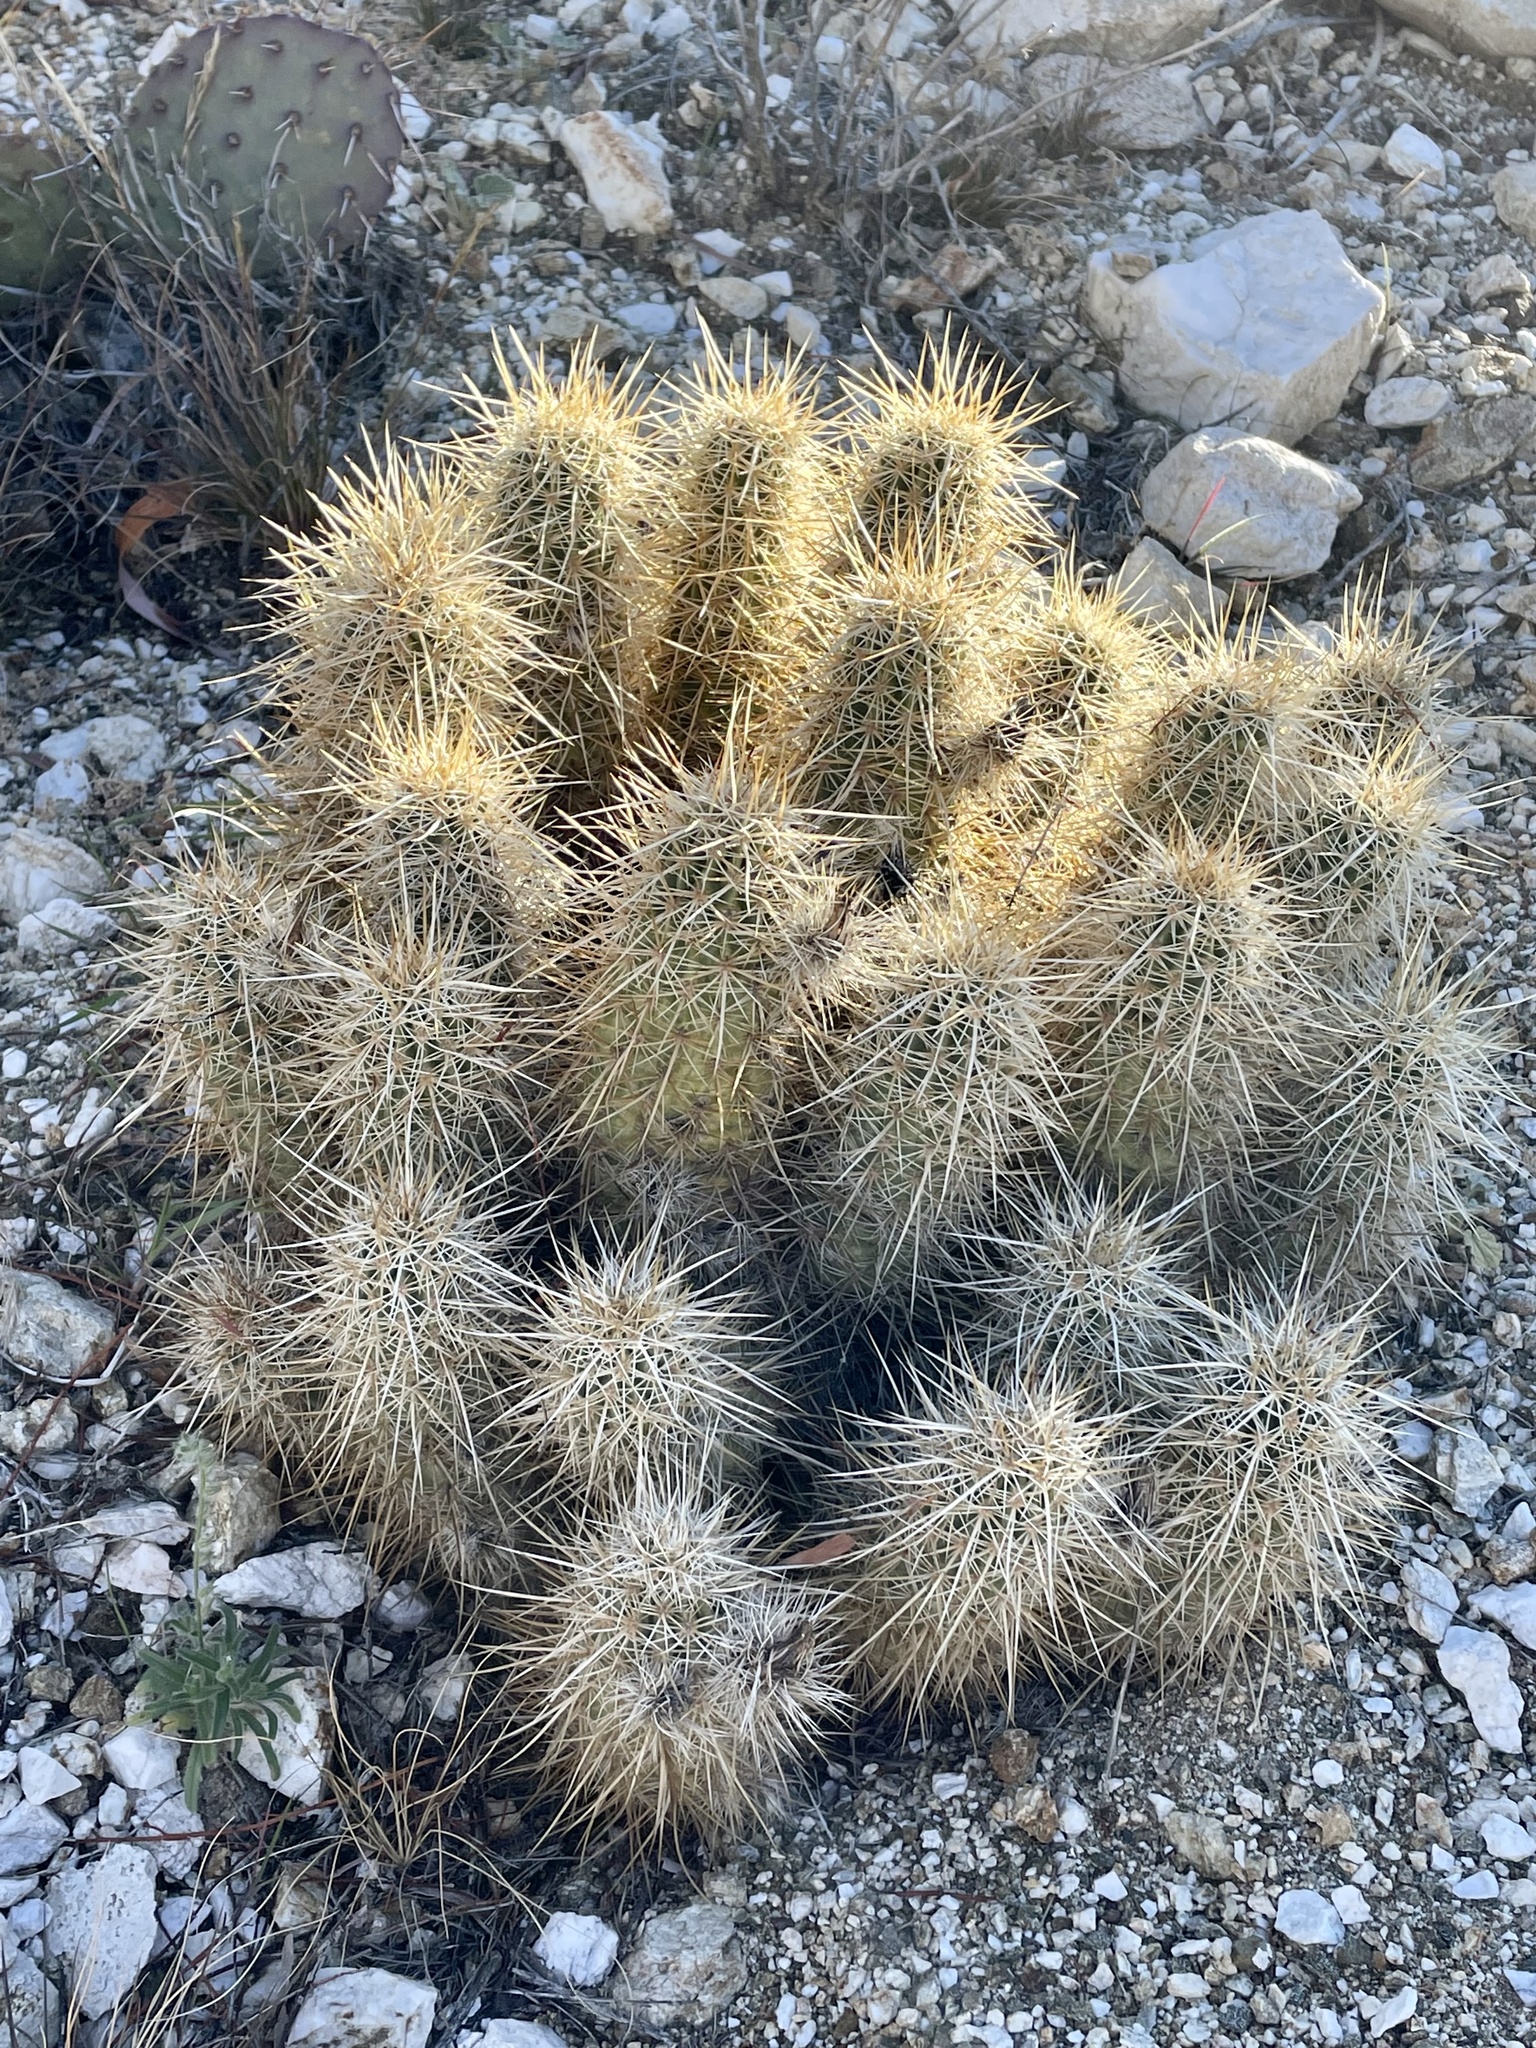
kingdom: Plantae
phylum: Tracheophyta
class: Magnoliopsida
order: Caryophyllales
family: Cactaceae
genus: Echinocereus
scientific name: Echinocereus engelmannii
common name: Engelmann's hedgehog cactus
